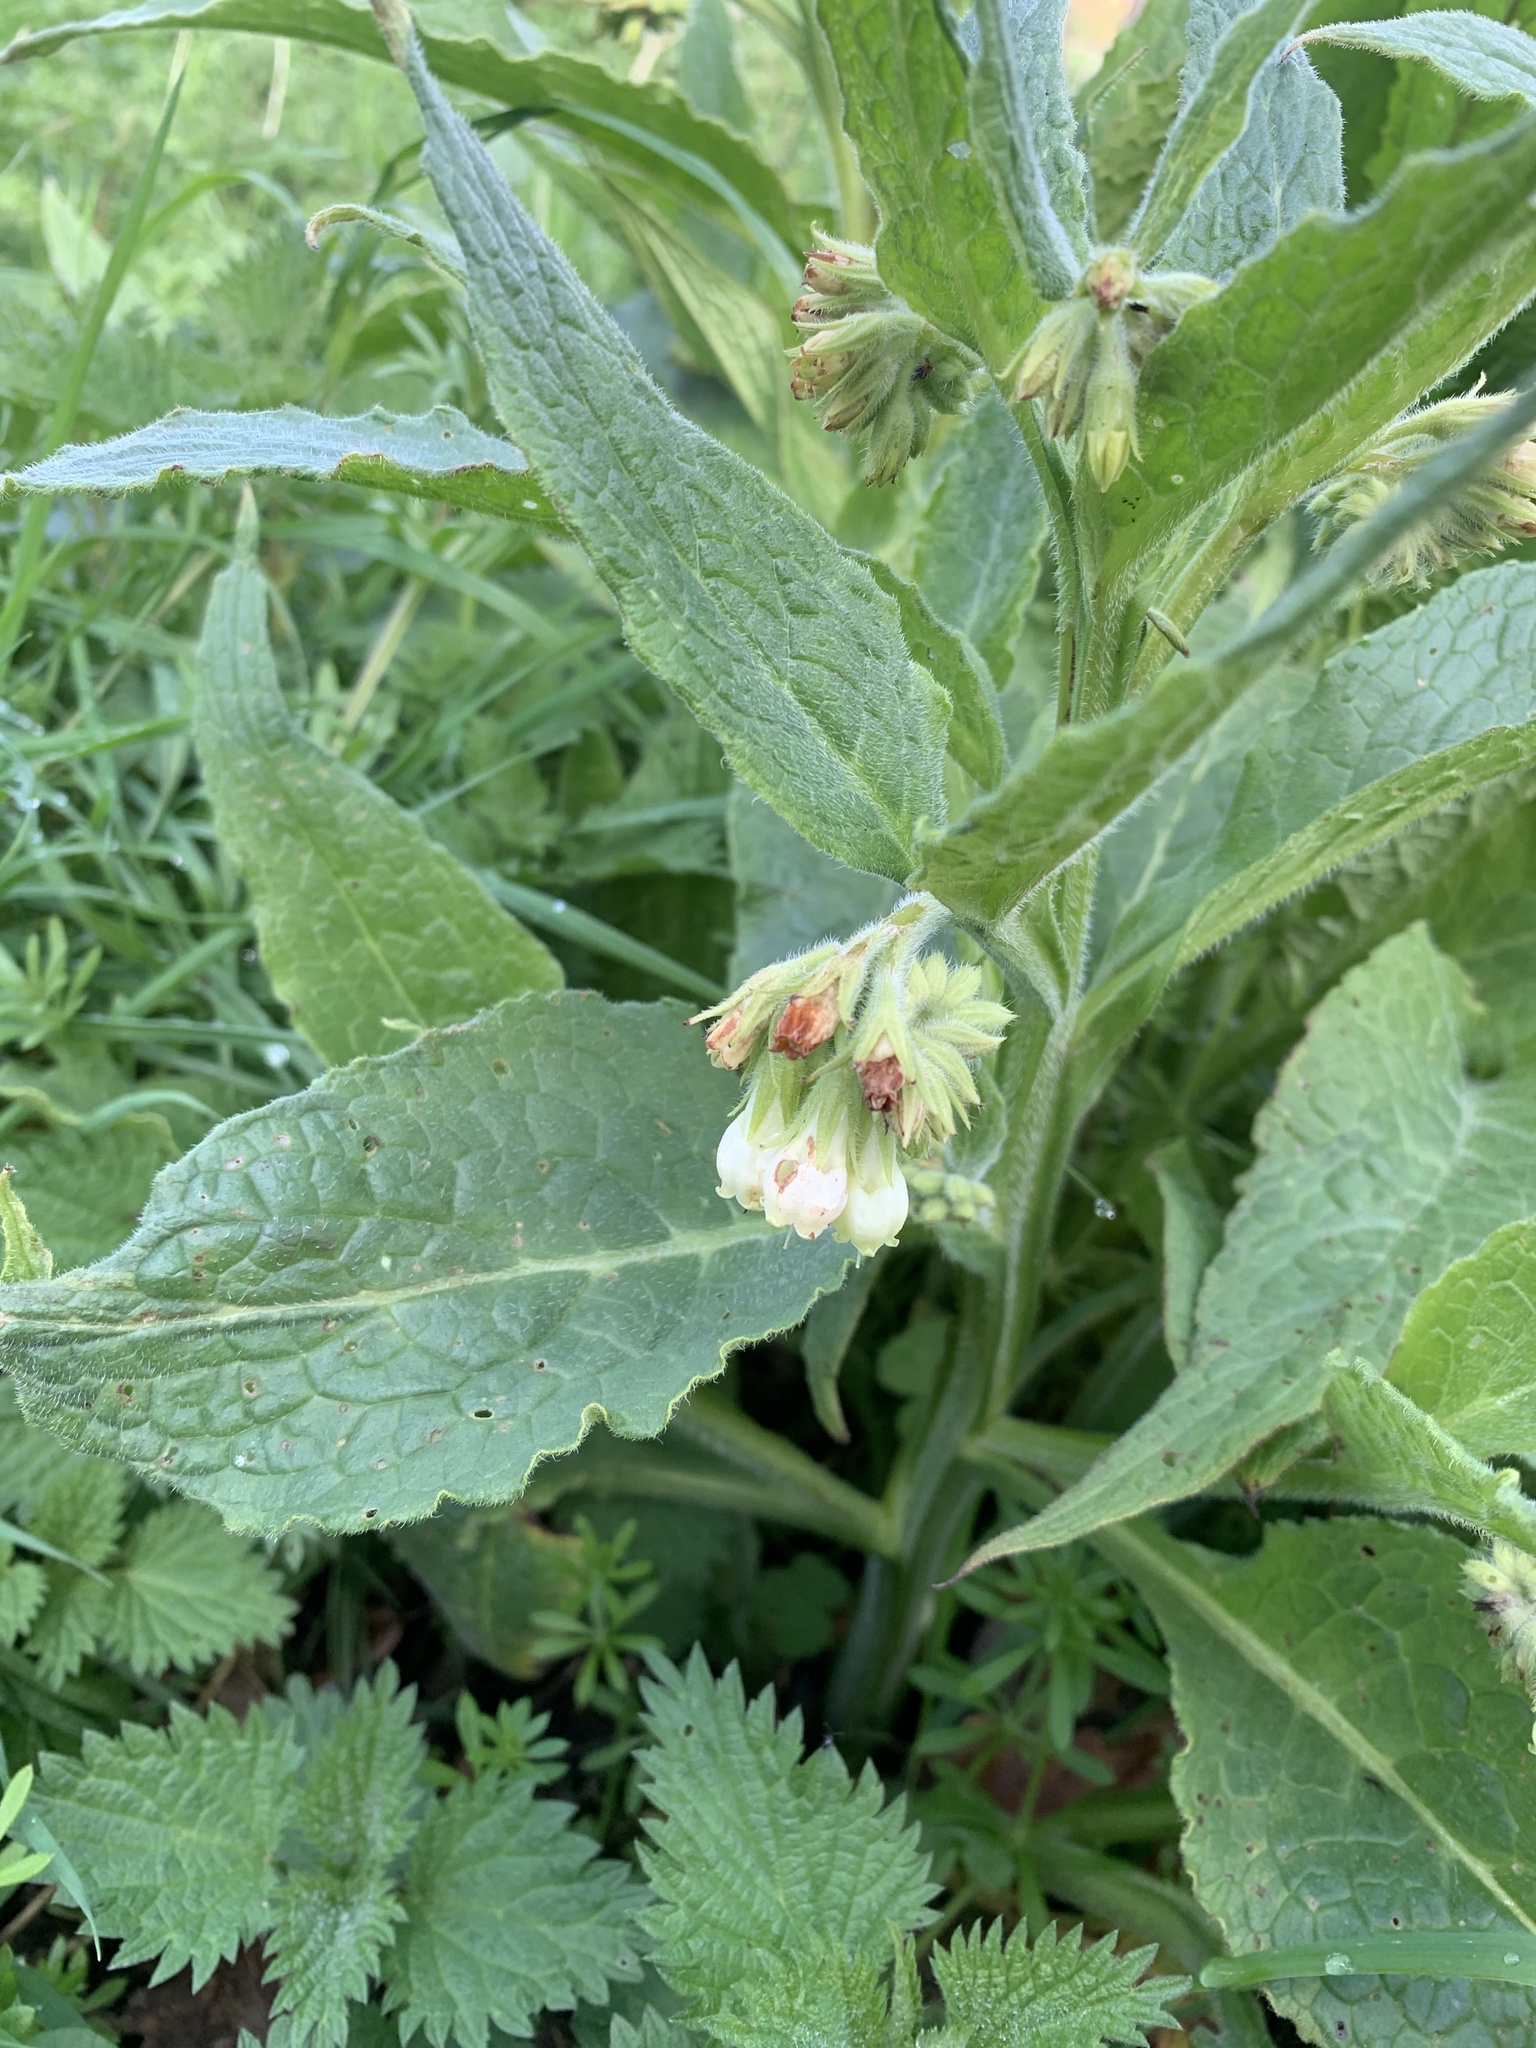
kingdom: Plantae
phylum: Tracheophyta
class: Magnoliopsida
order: Boraginales
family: Boraginaceae
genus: Symphytum
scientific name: Symphytum officinale
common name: Common comfrey
